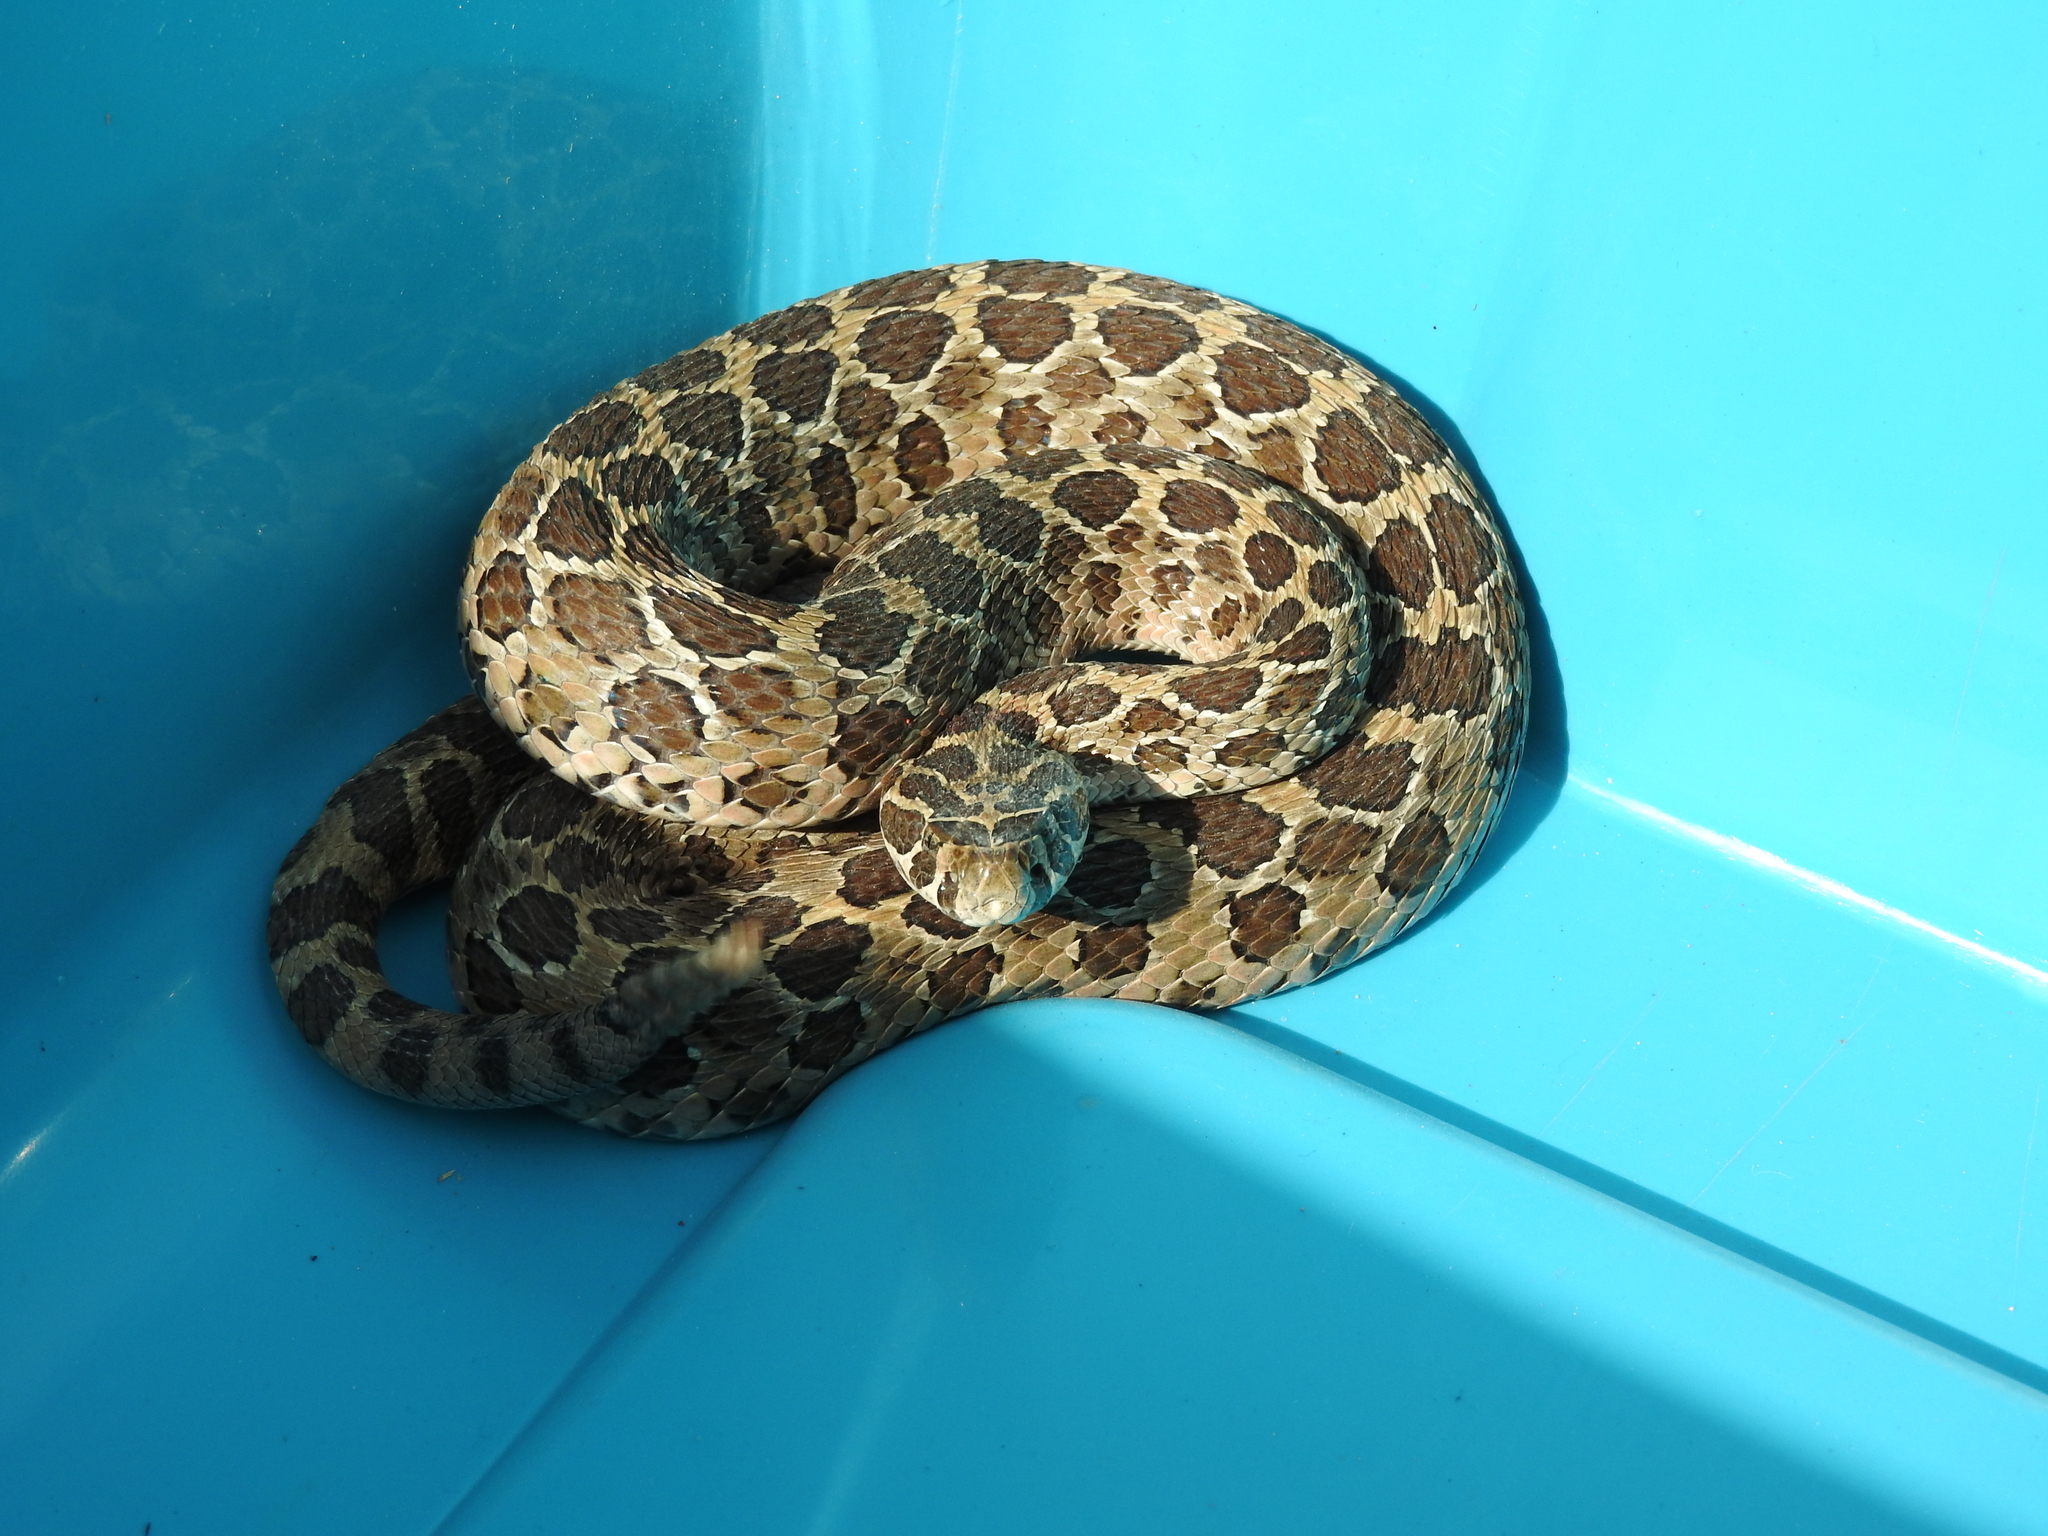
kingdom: Animalia
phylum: Chordata
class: Squamata
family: Viperidae
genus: Crotalus
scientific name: Crotalus polystictus
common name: Mexican lancehead rattlesnake
